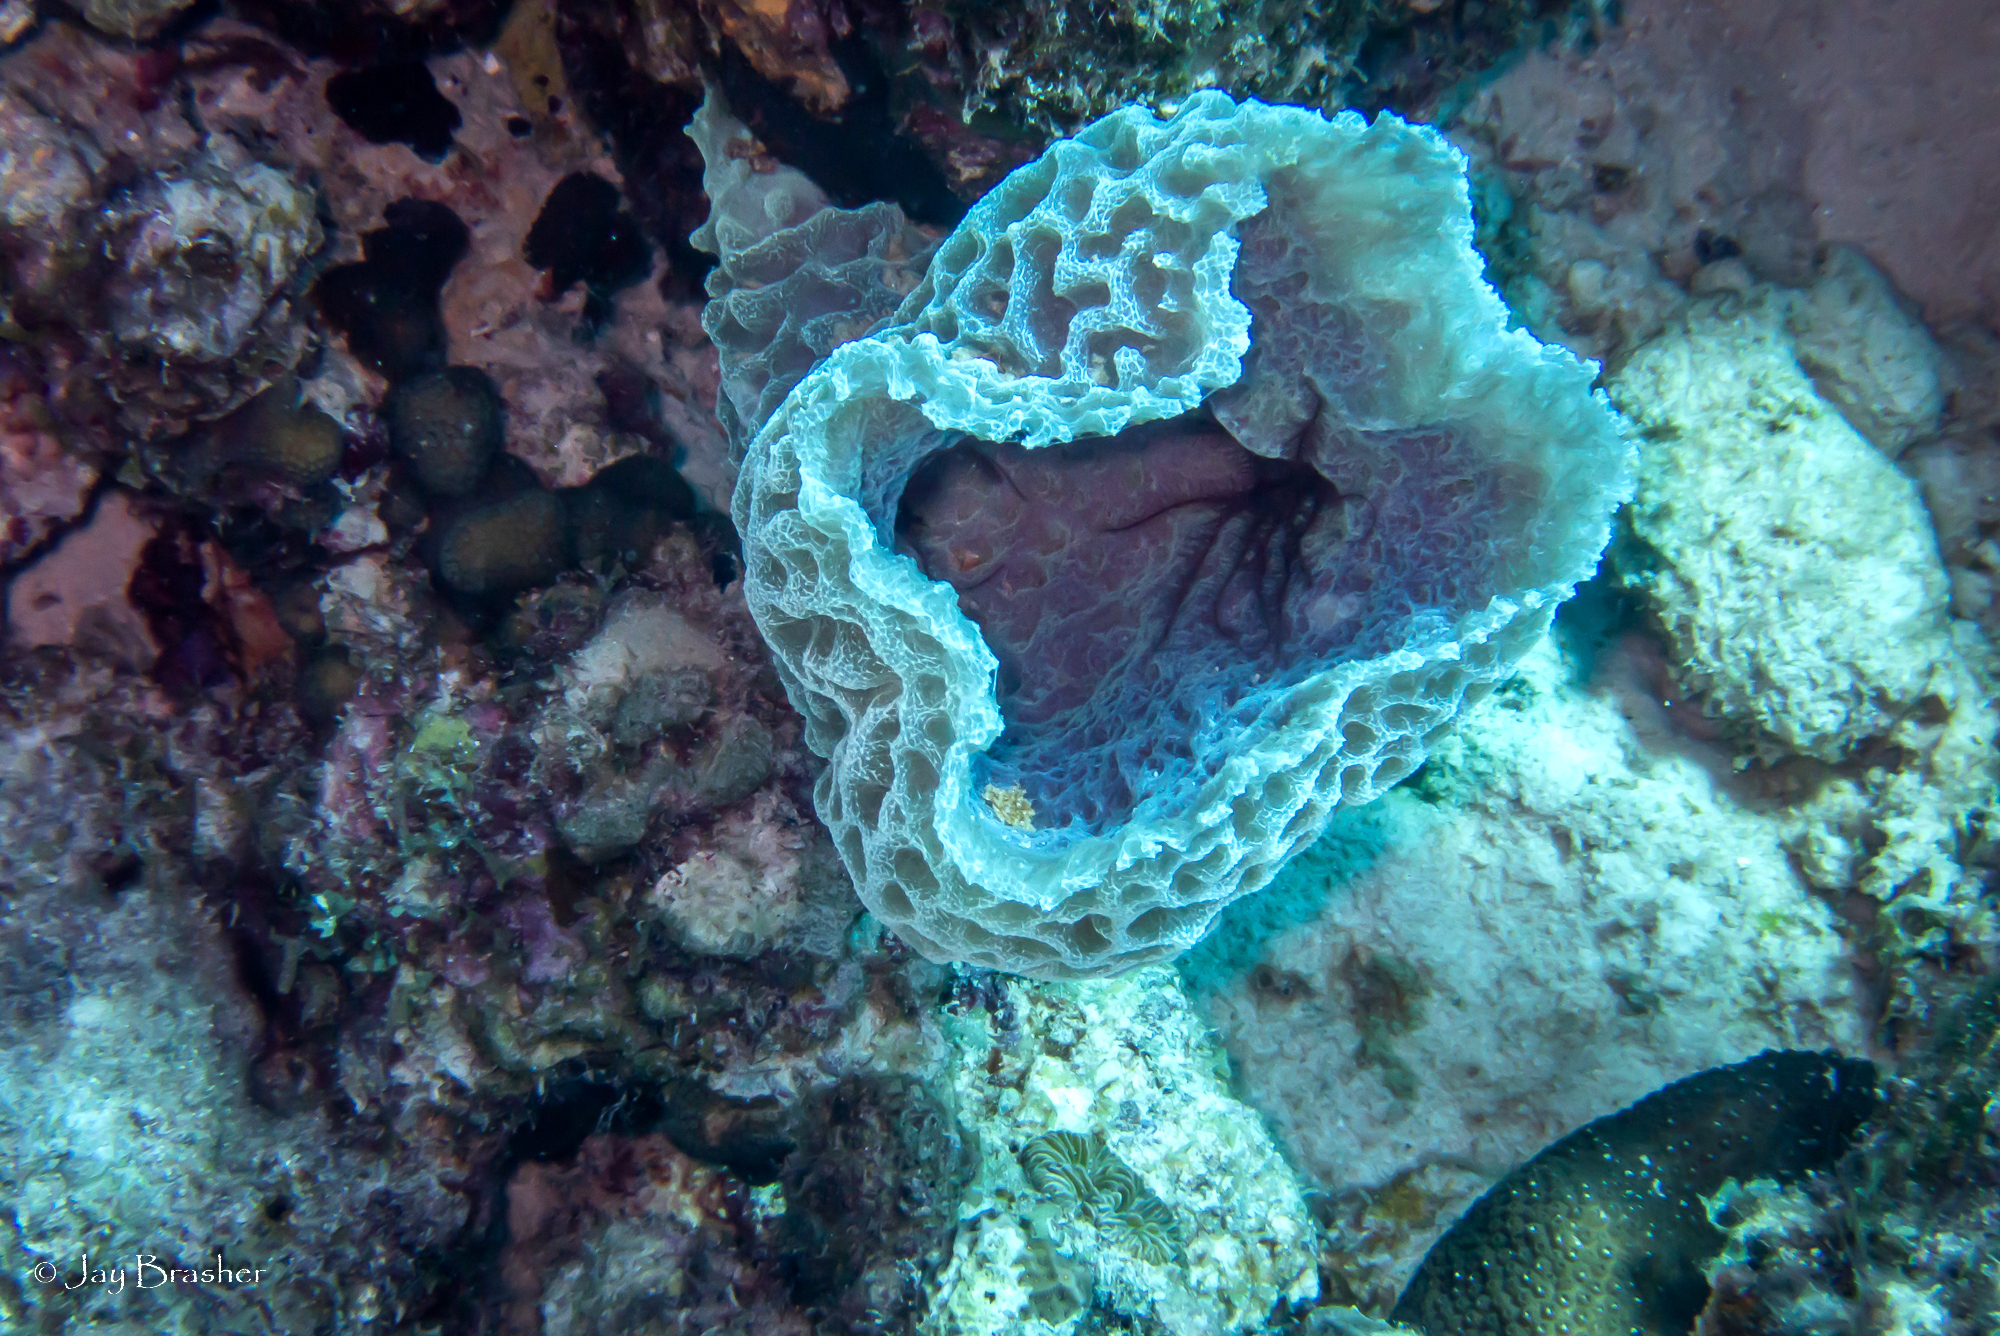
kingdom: Animalia
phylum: Porifera
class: Demospongiae
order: Haplosclerida
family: Callyspongiidae
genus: Callyspongia
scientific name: Callyspongia plicifera
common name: Azure vase sponge
